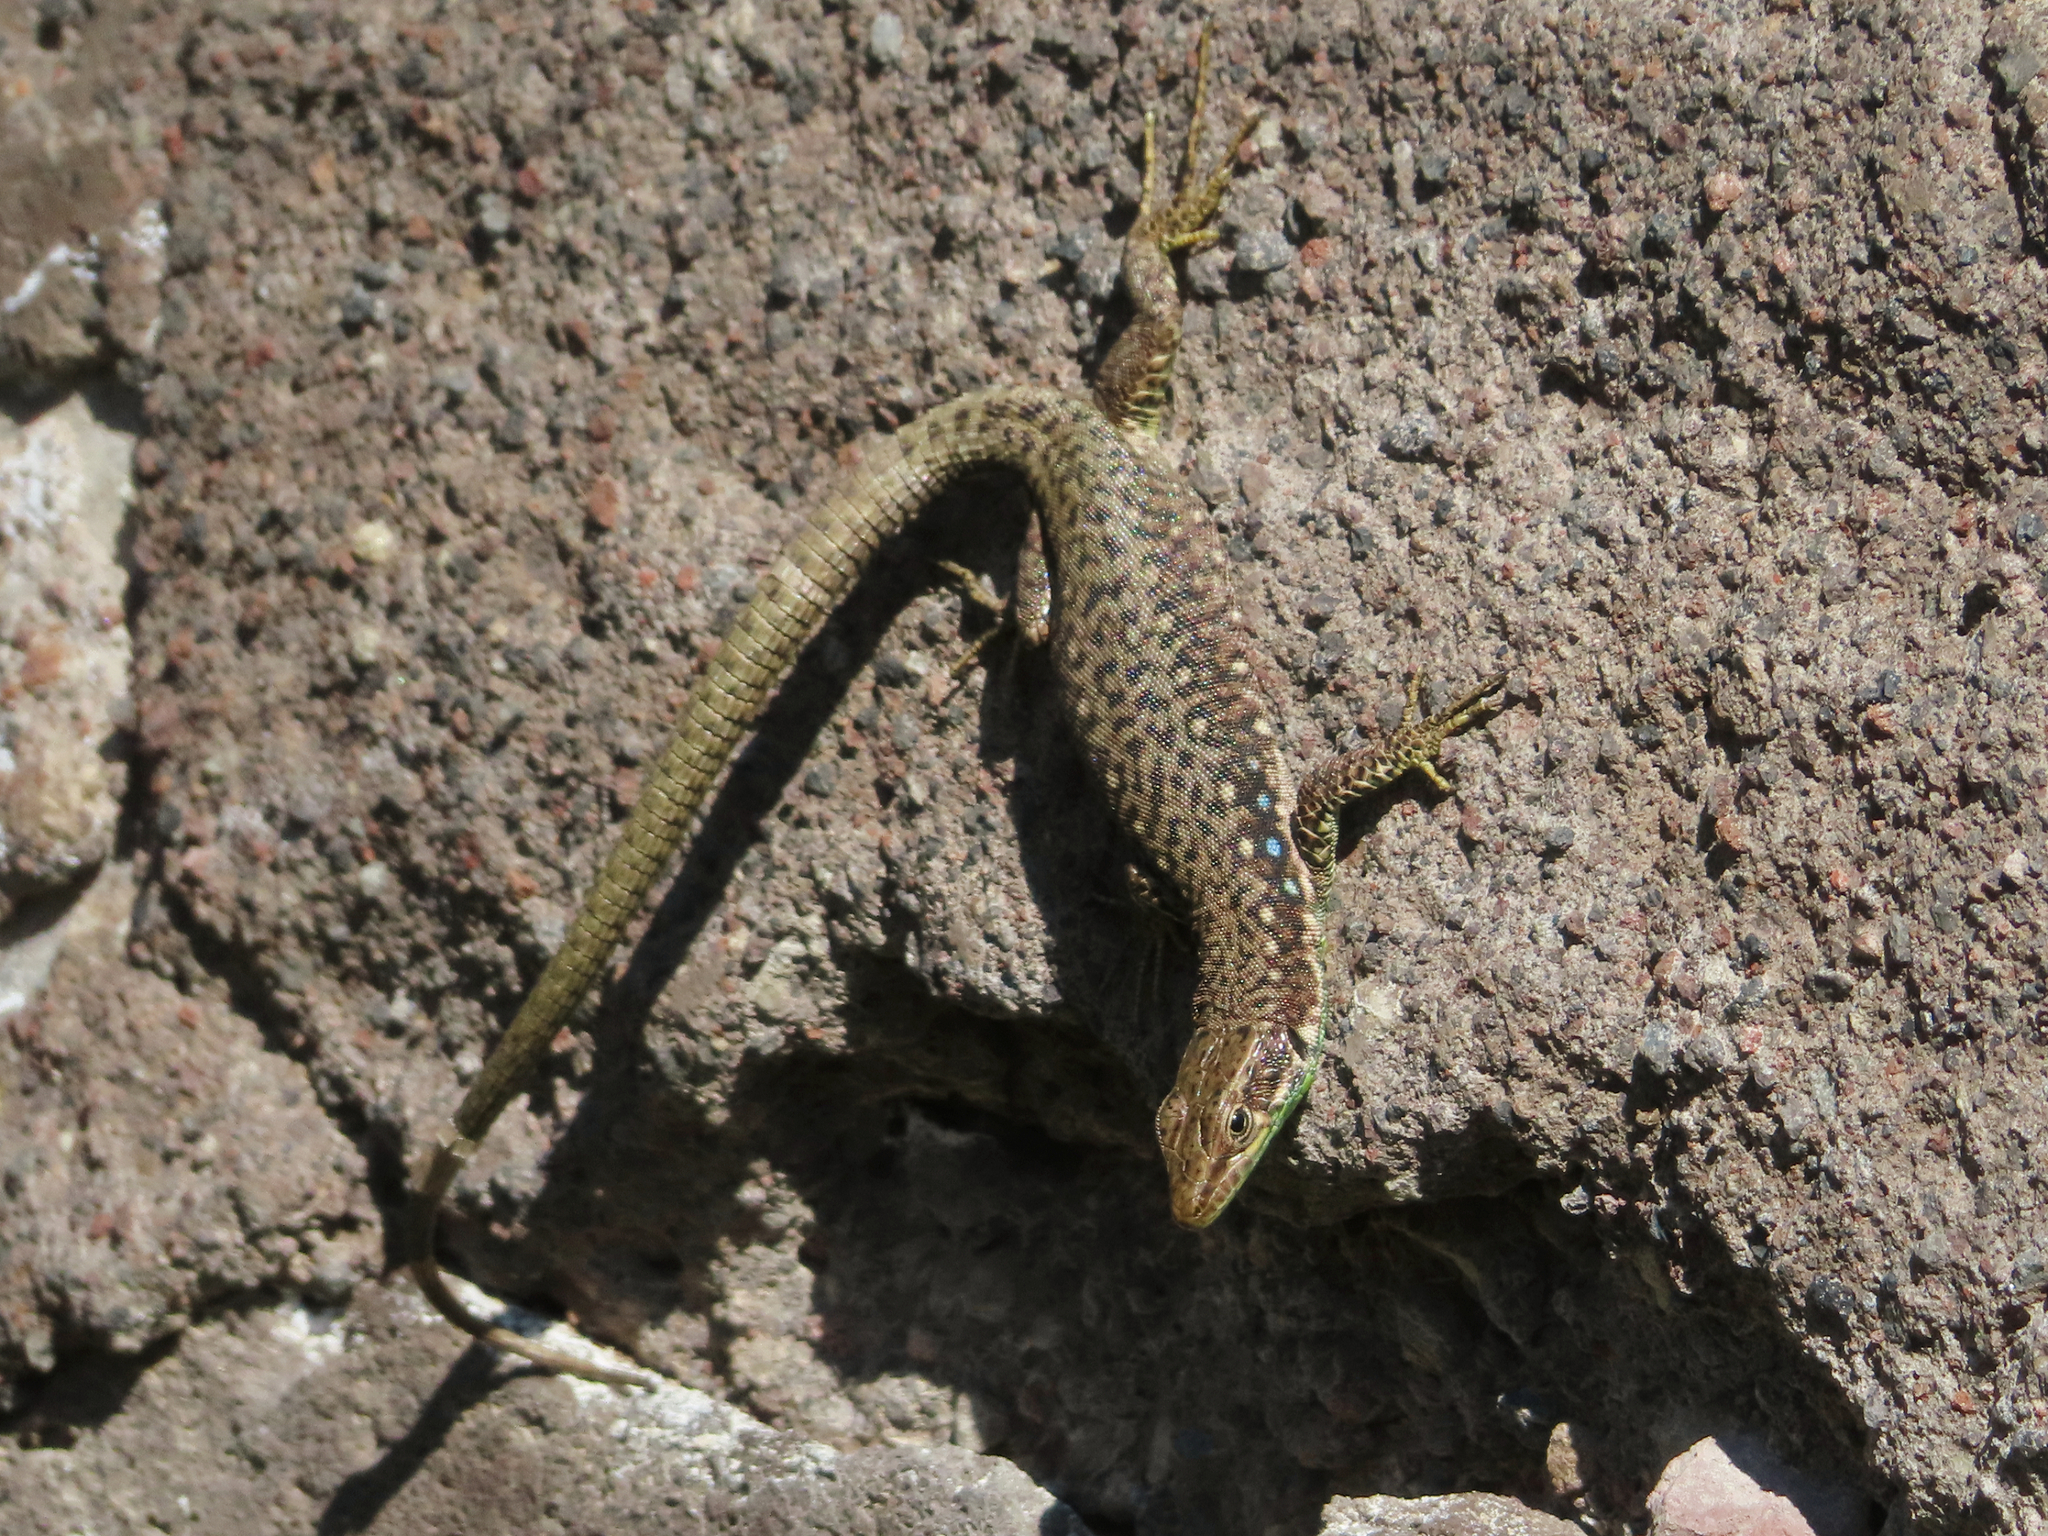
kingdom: Animalia
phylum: Chordata
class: Squamata
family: Lacertidae
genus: Darevskia
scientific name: Darevskia raddei
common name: Radde's lizard
